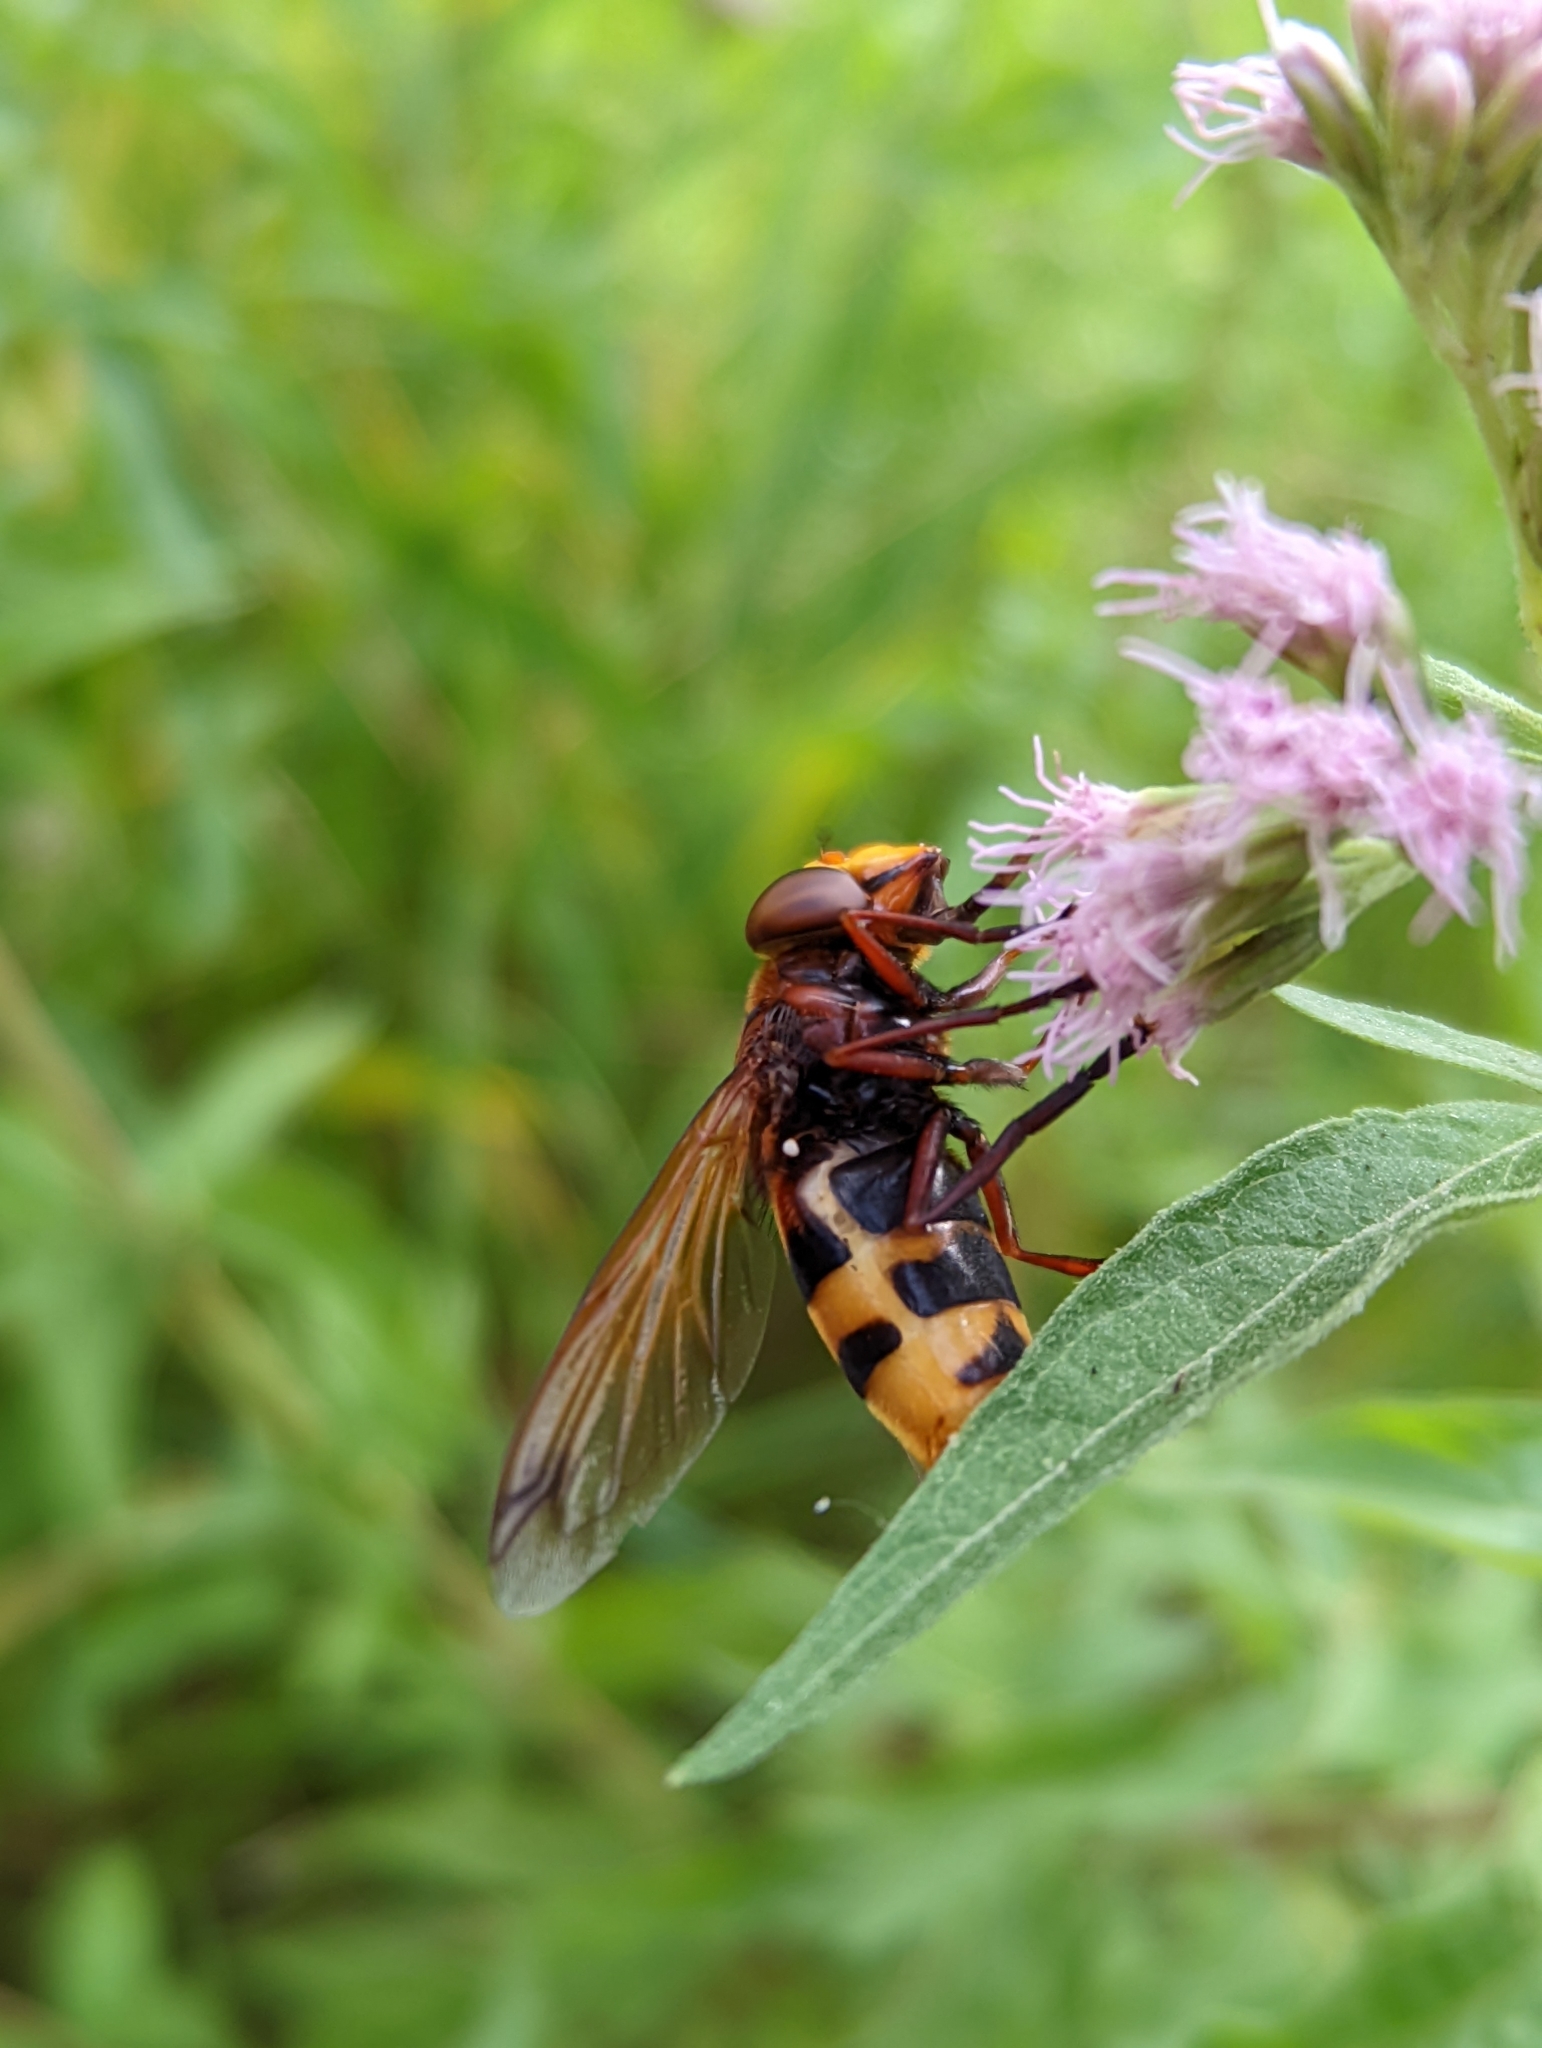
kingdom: Animalia
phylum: Arthropoda
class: Insecta
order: Diptera
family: Syrphidae
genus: Volucella
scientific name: Volucella zonaria
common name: Hornet hoverfly
